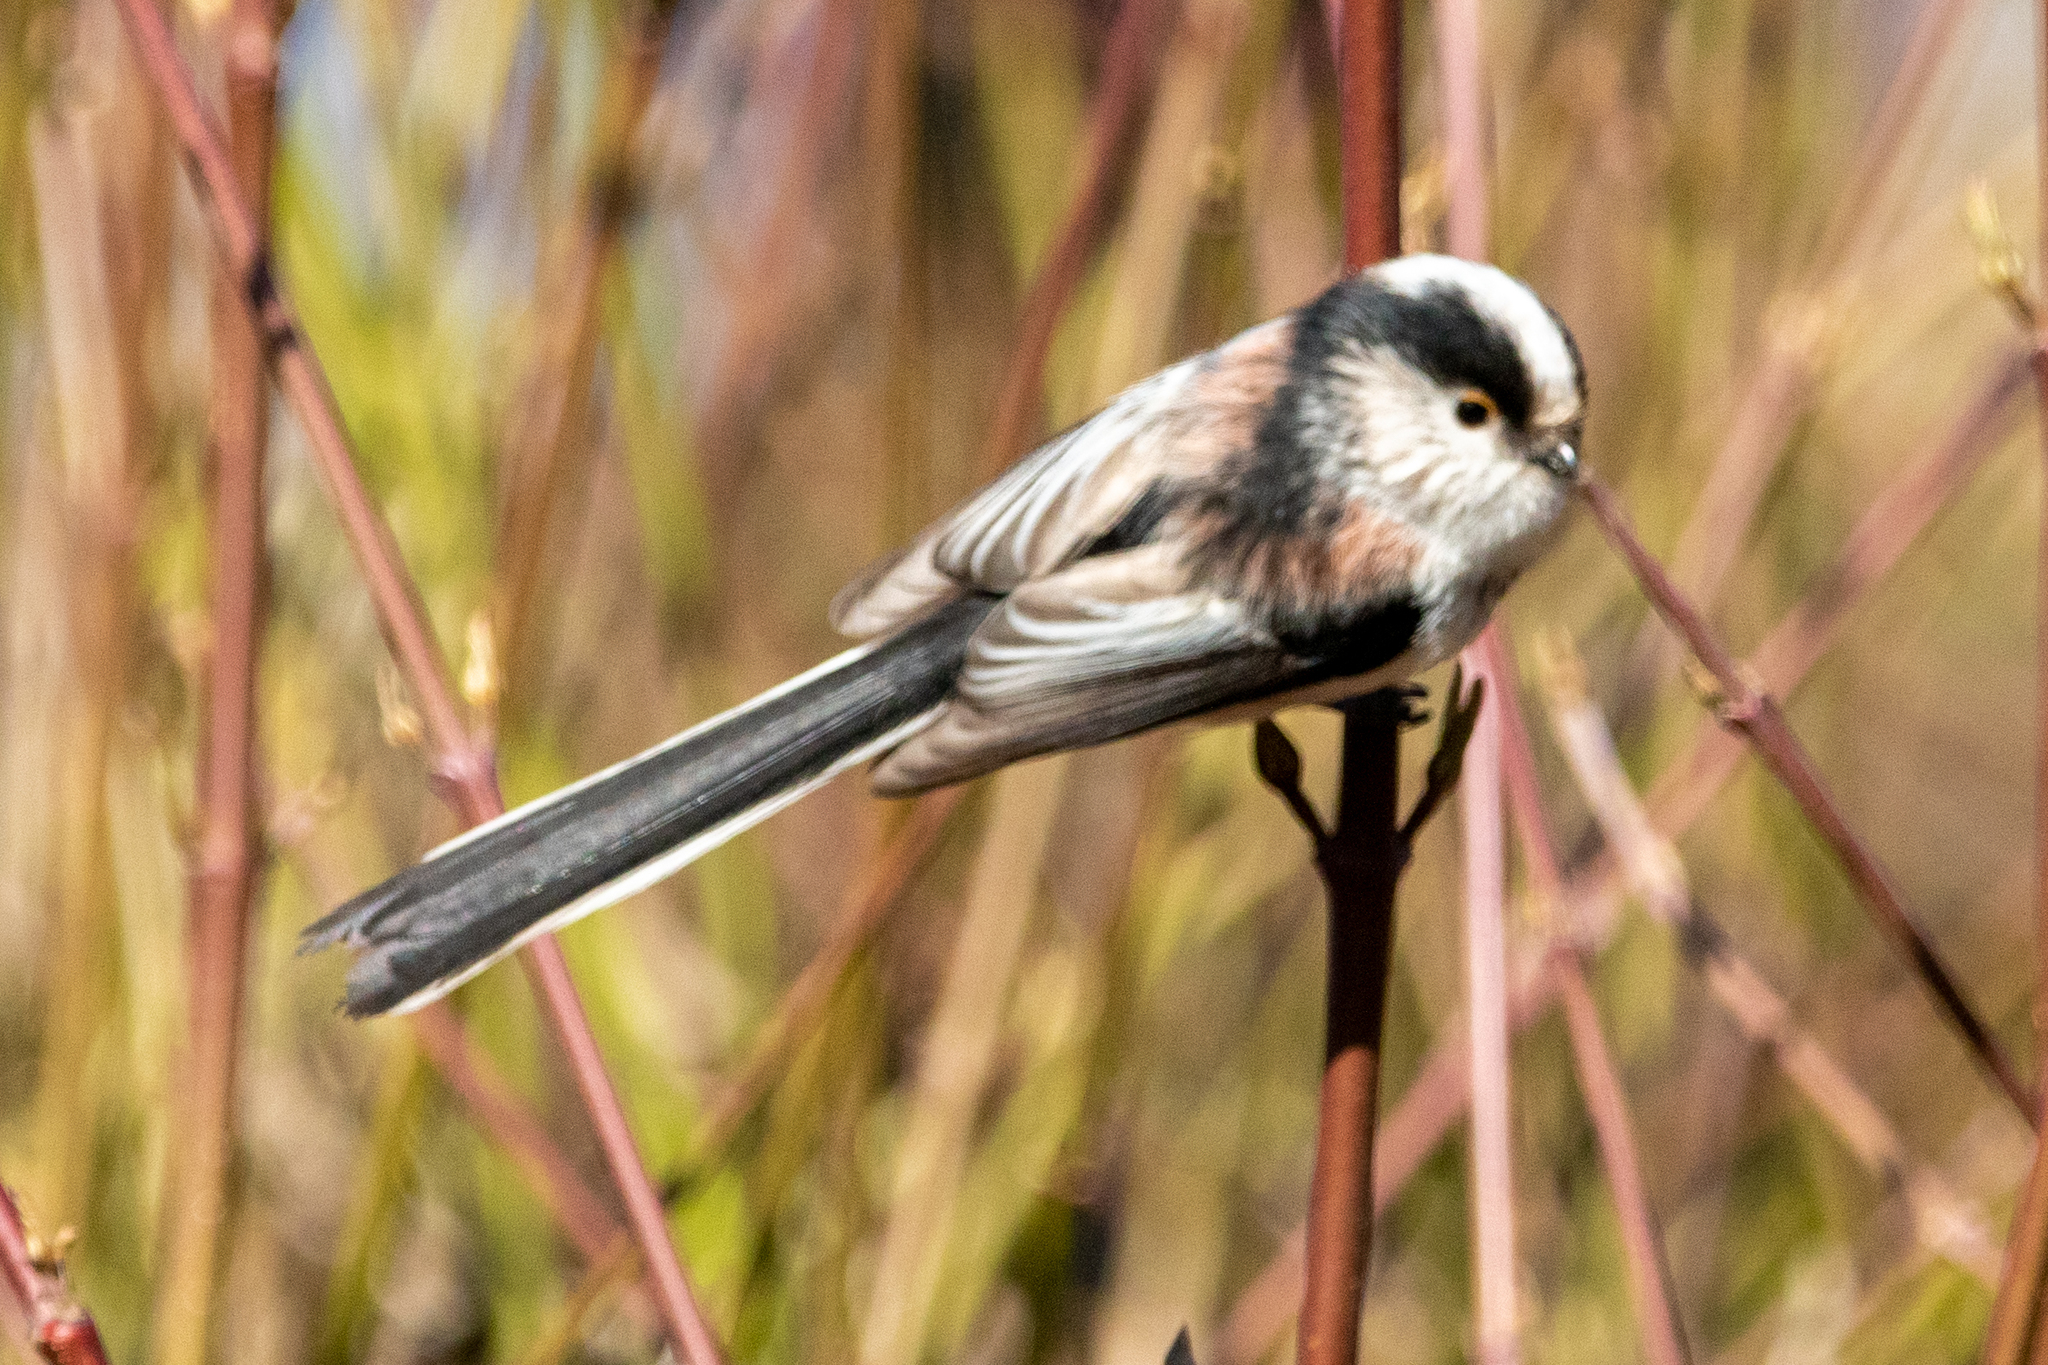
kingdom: Animalia
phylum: Chordata
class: Aves
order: Passeriformes
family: Aegithalidae
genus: Aegithalos
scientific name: Aegithalos caudatus
